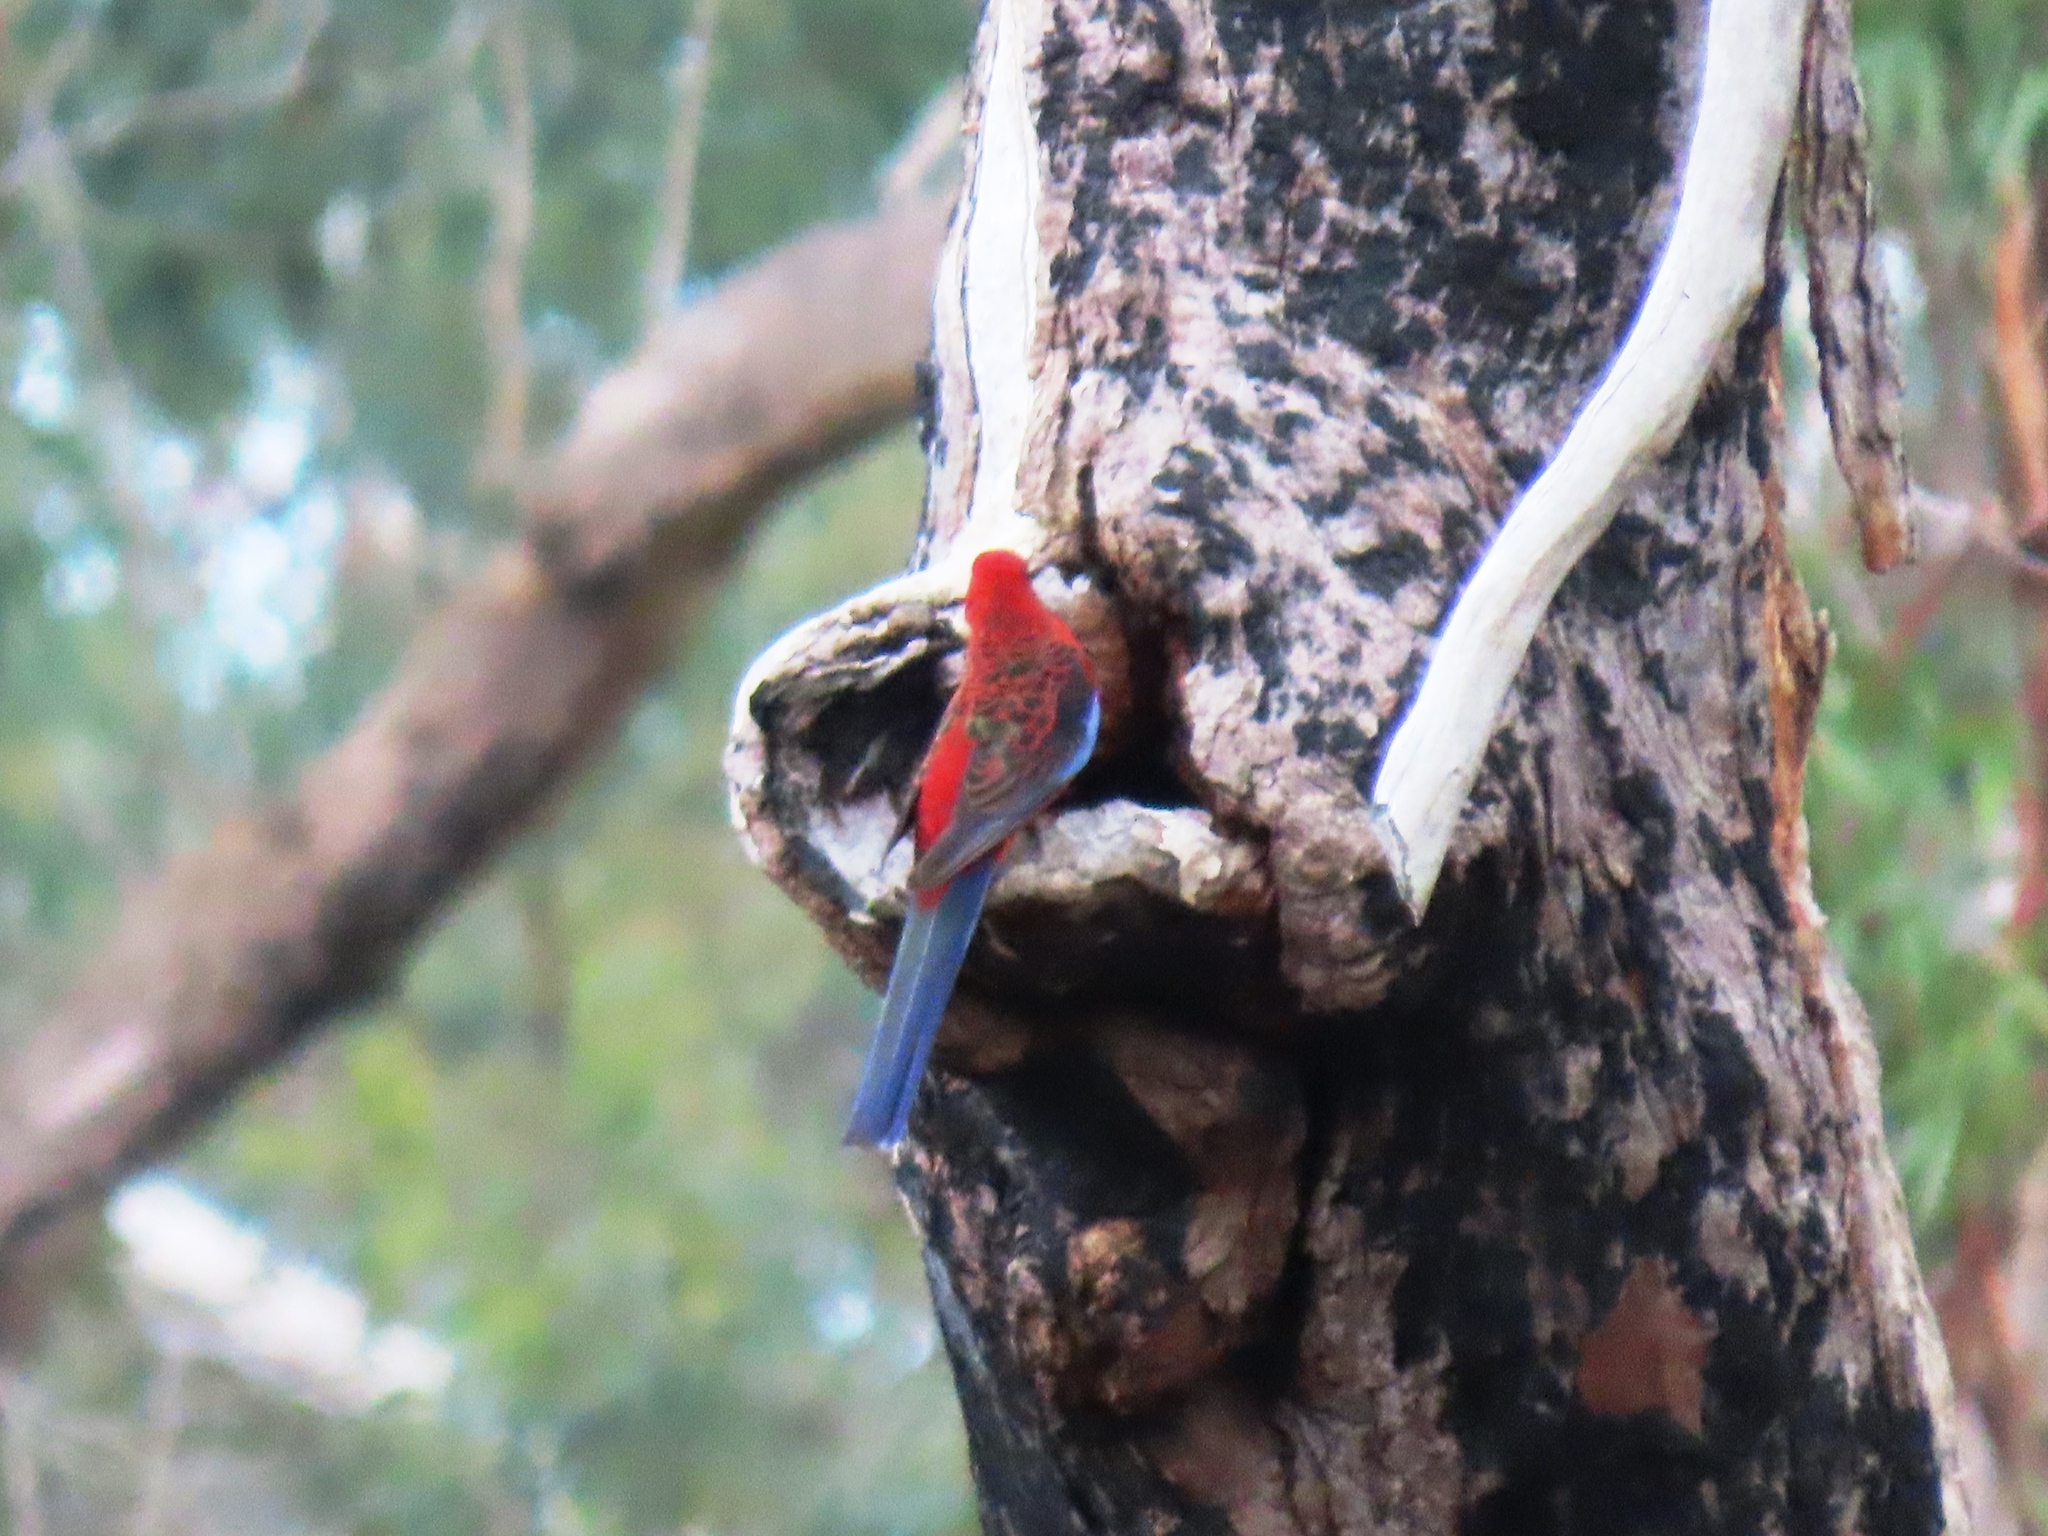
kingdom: Animalia
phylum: Chordata
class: Aves
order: Psittaciformes
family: Psittacidae
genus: Platycercus
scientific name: Platycercus elegans
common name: Crimson rosella
